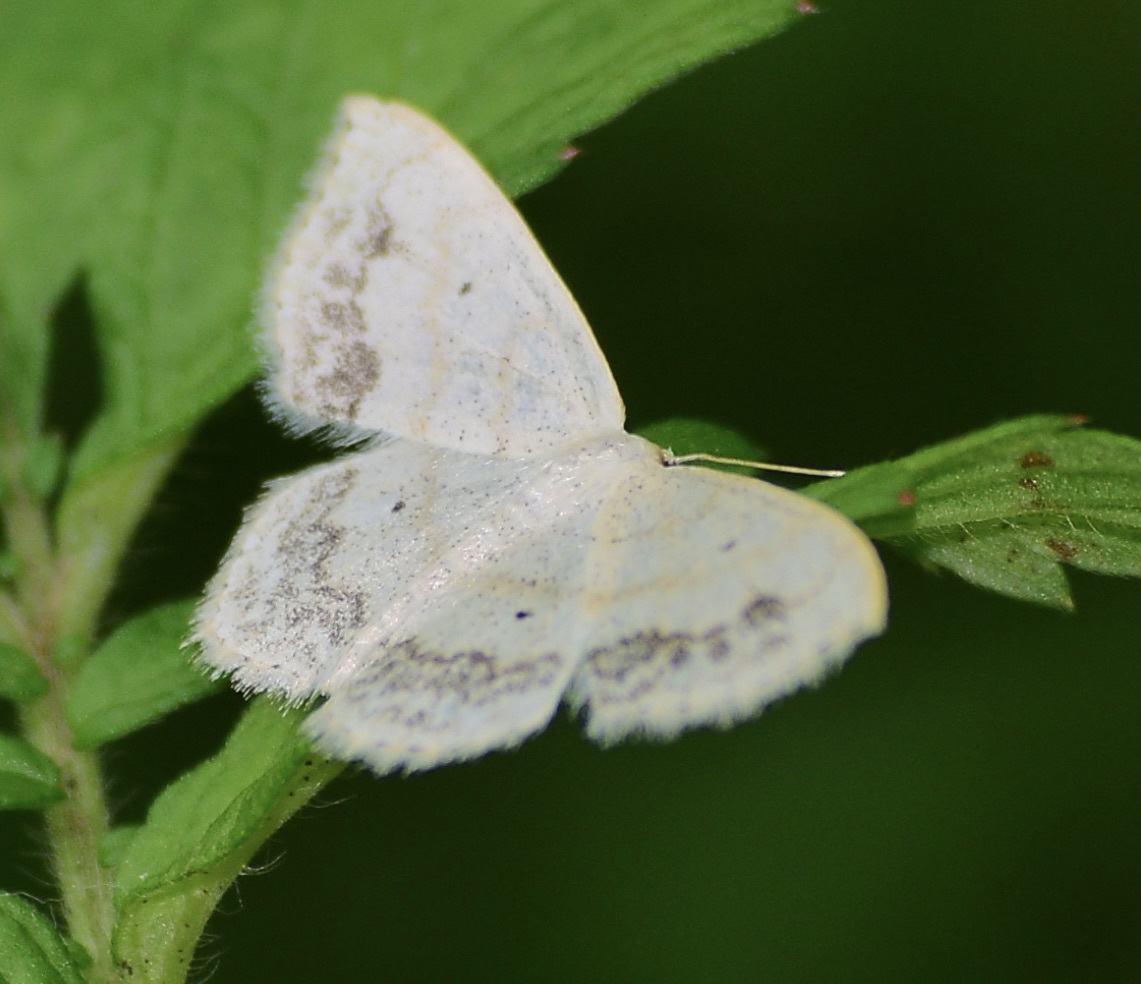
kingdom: Animalia
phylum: Arthropoda
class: Insecta
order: Lepidoptera
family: Geometridae
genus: Scopula
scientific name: Scopula limboundata
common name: Large lace border
